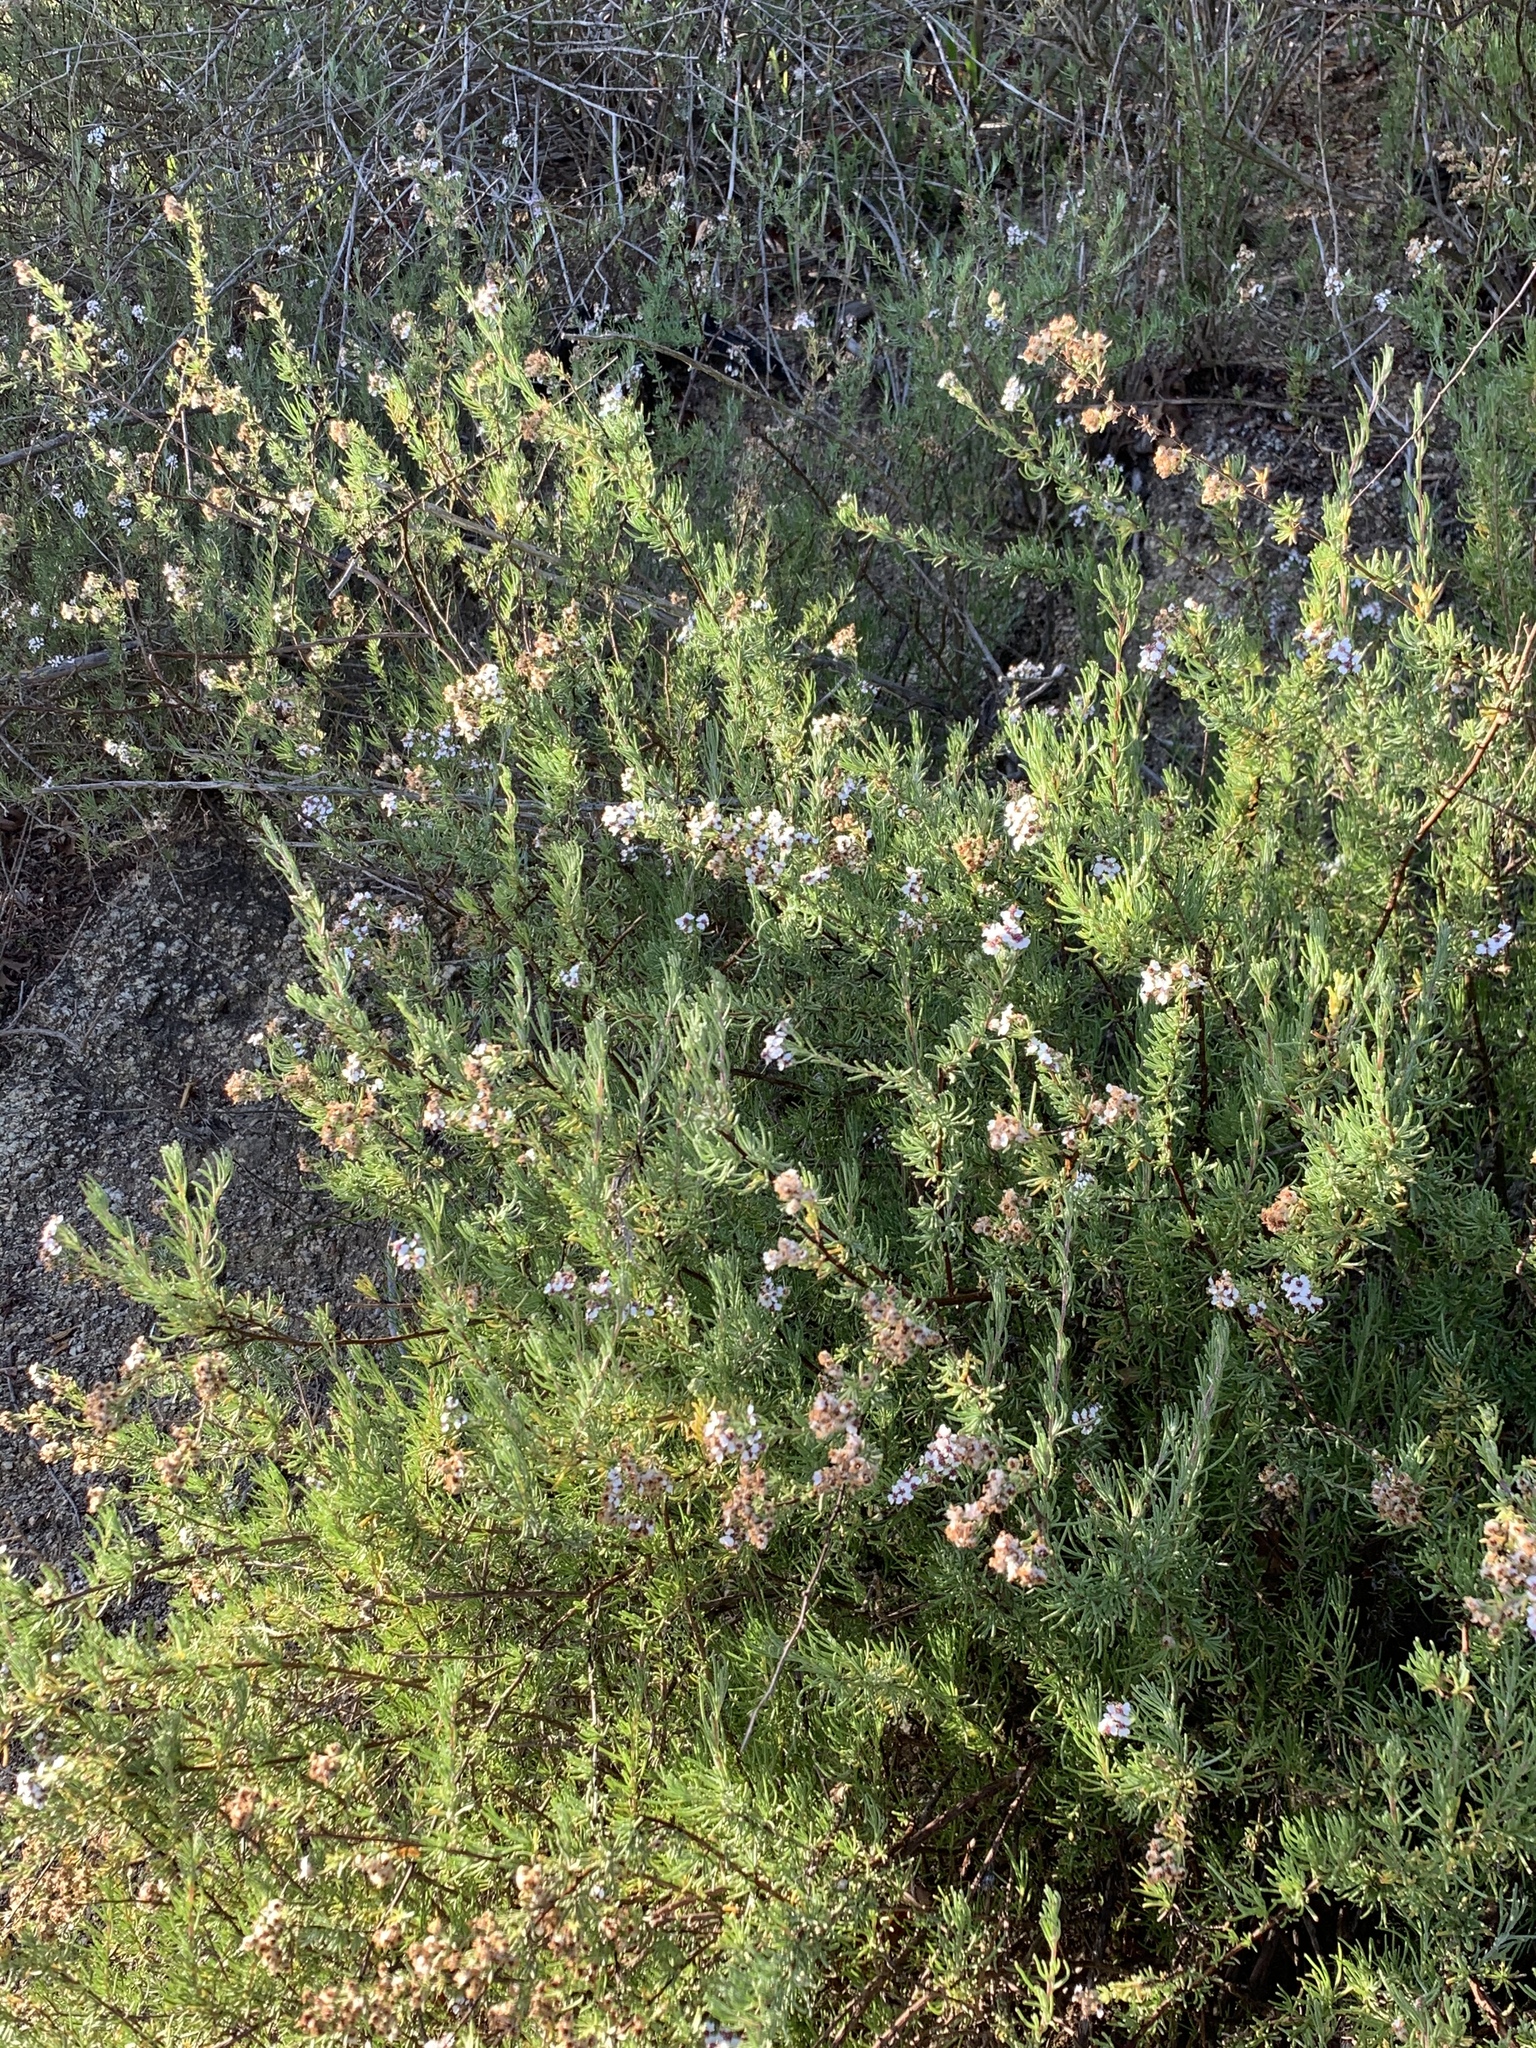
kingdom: Plantae
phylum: Tracheophyta
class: Magnoliopsida
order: Asterales
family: Asteraceae
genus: Eriocephalus
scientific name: Eriocephalus africanus
